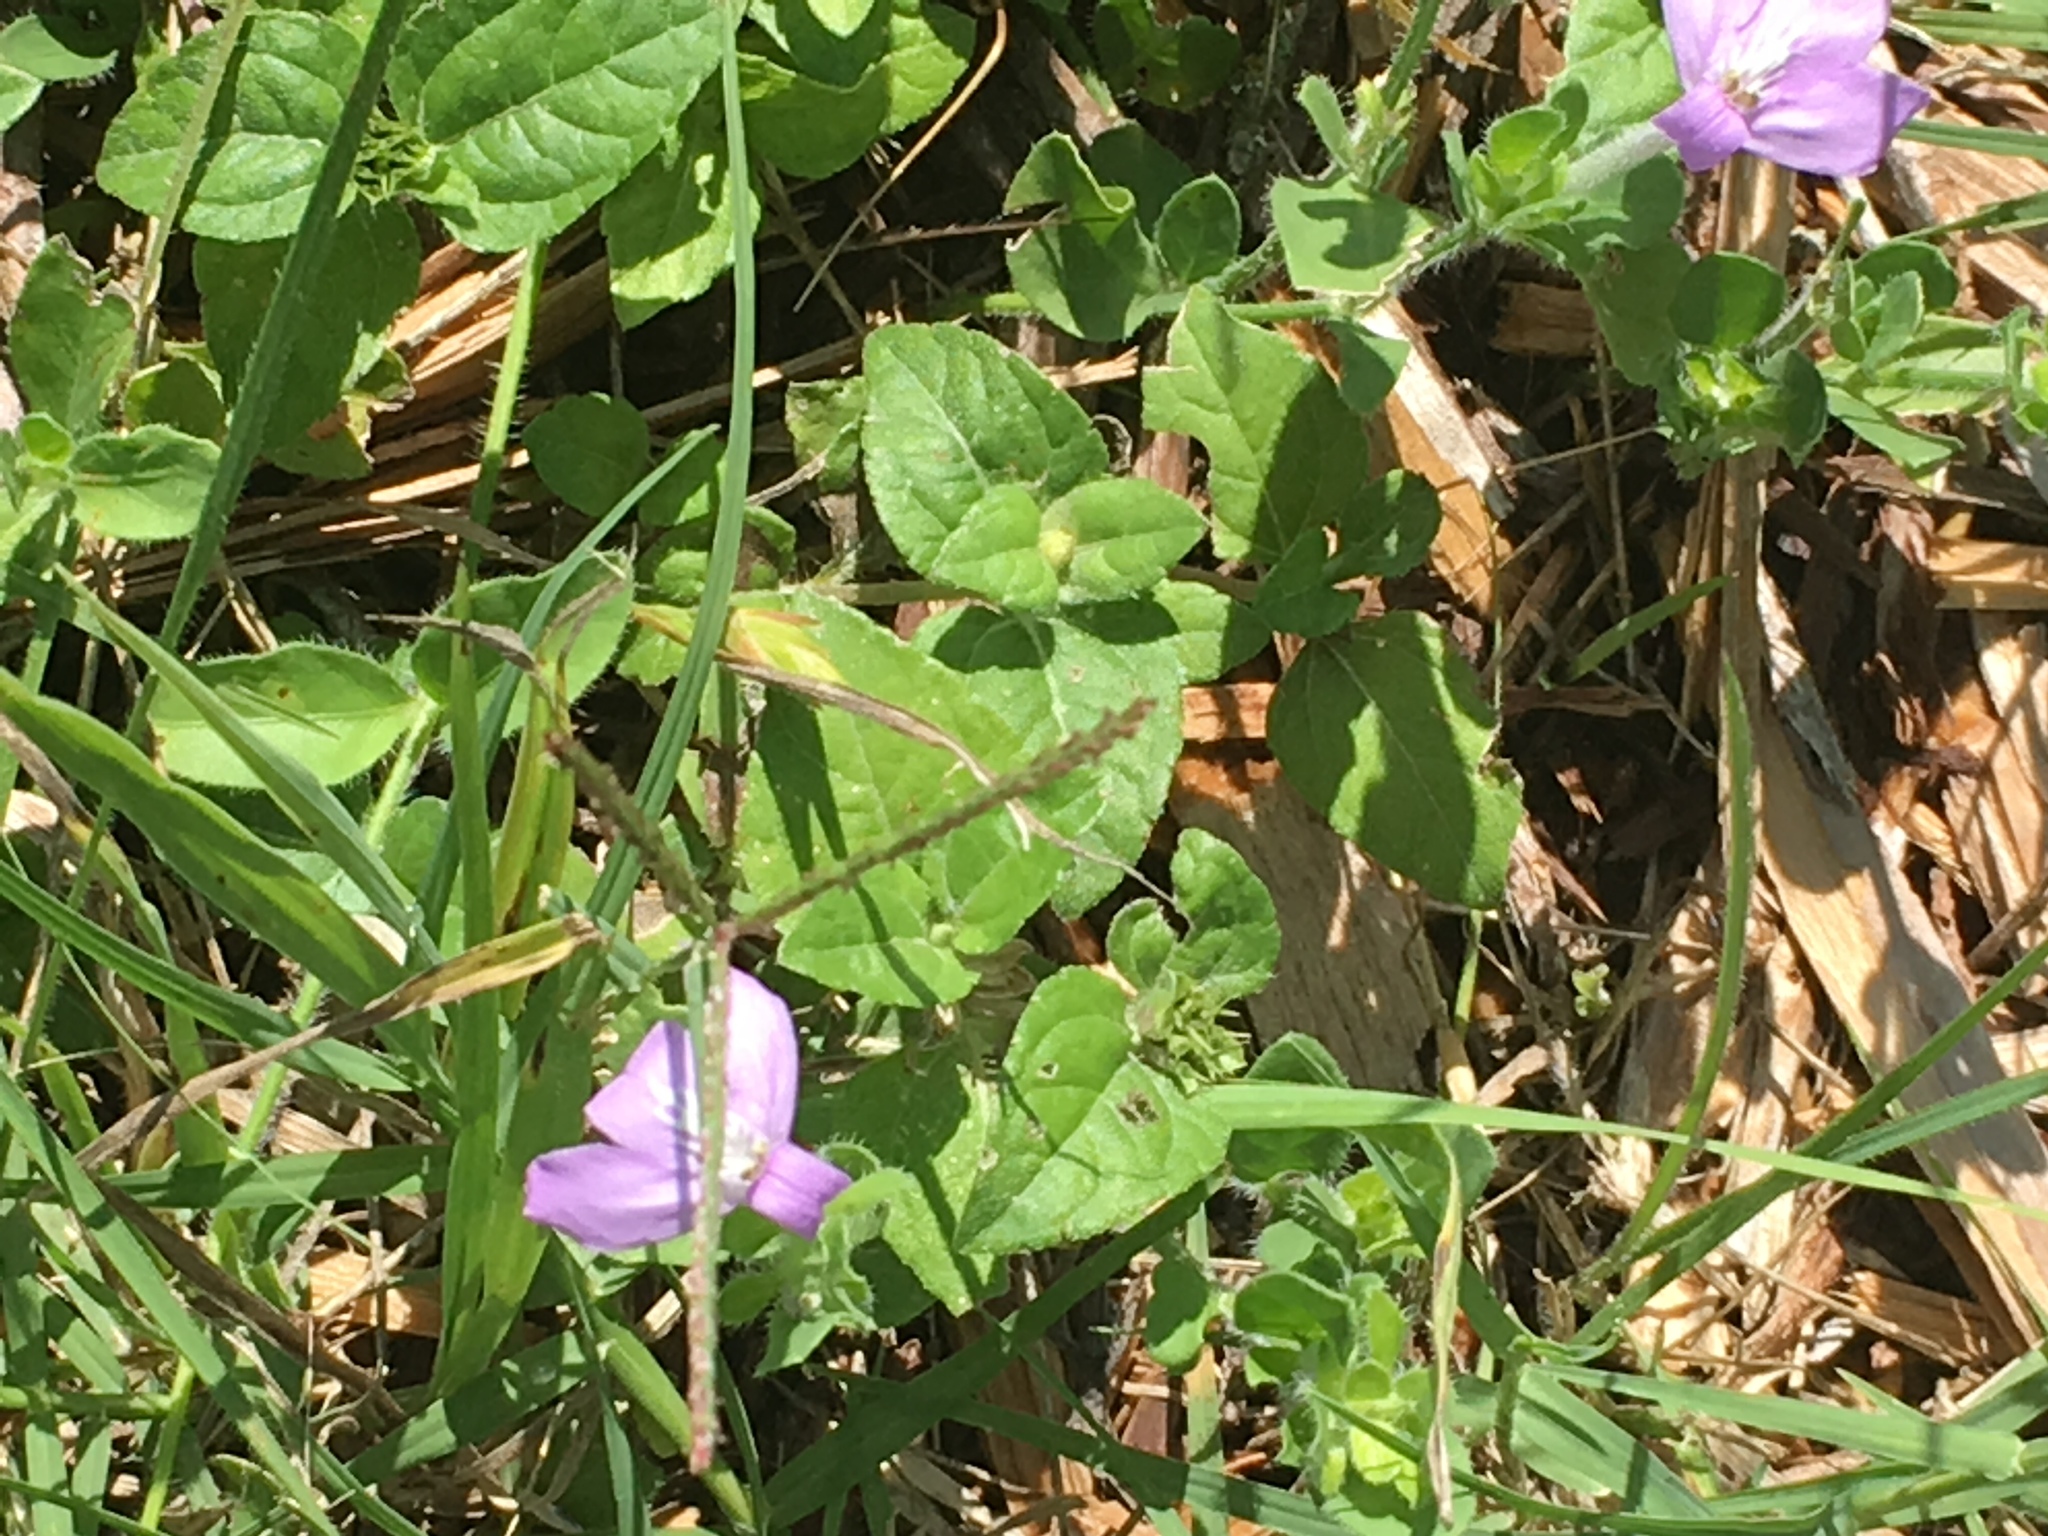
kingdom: Plantae
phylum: Tracheophyta
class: Magnoliopsida
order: Lamiales
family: Acanthaceae
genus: Justicia
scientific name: Justicia pilosella
